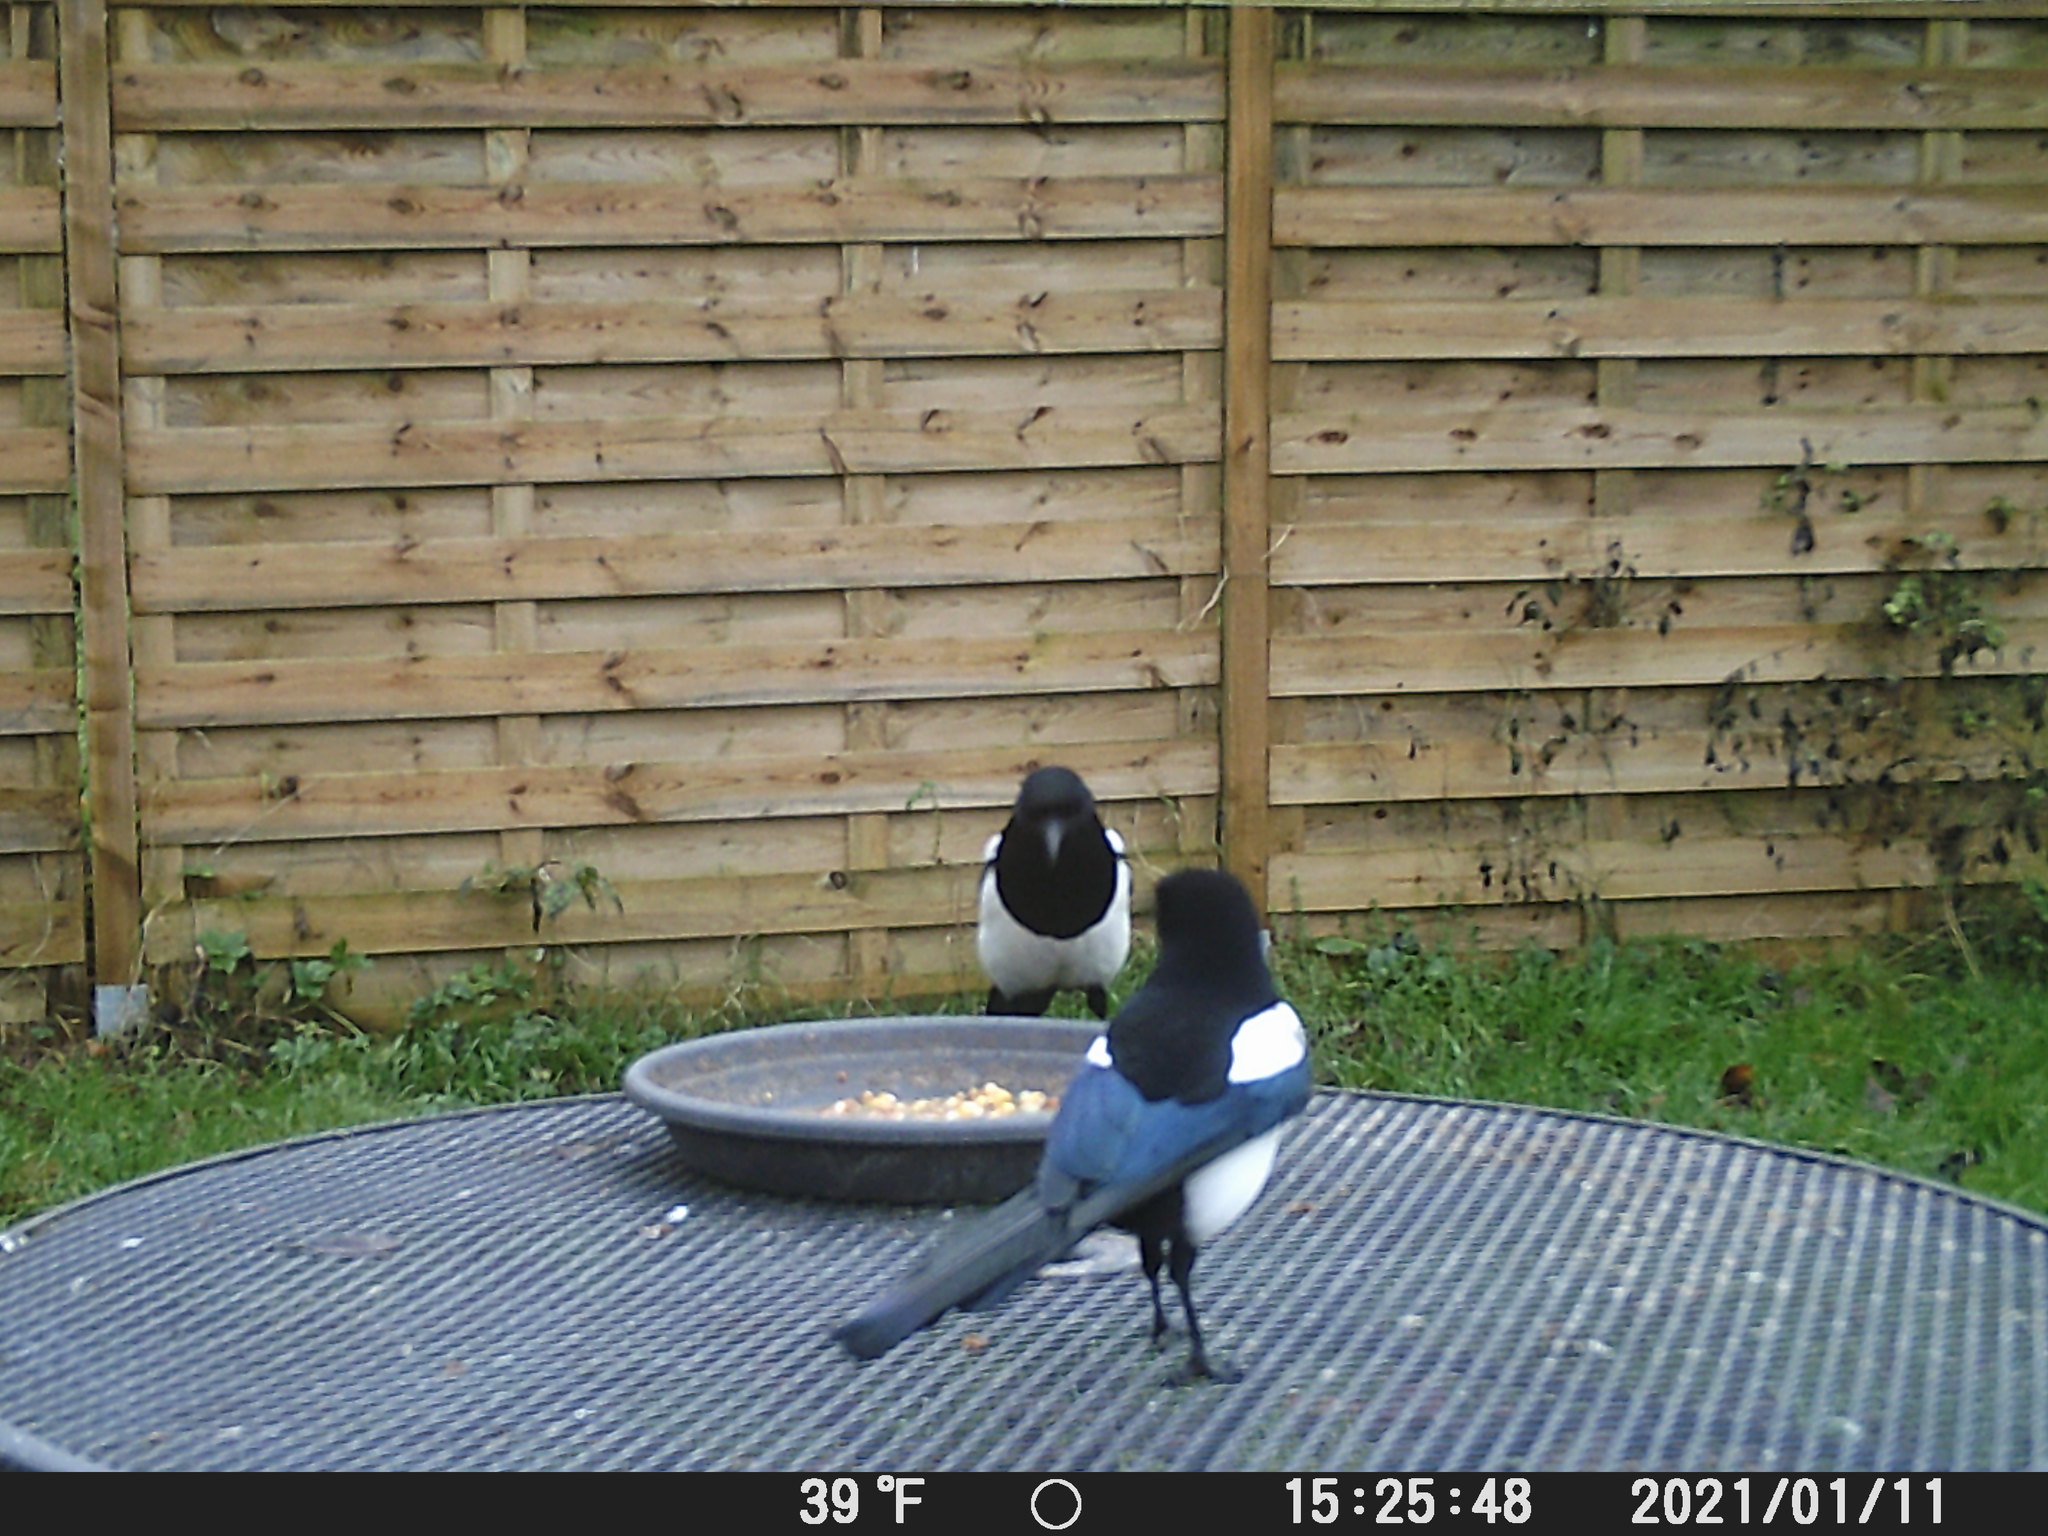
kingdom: Animalia
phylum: Chordata
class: Aves
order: Passeriformes
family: Corvidae
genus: Pica
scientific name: Pica pica
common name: Eurasian magpie
